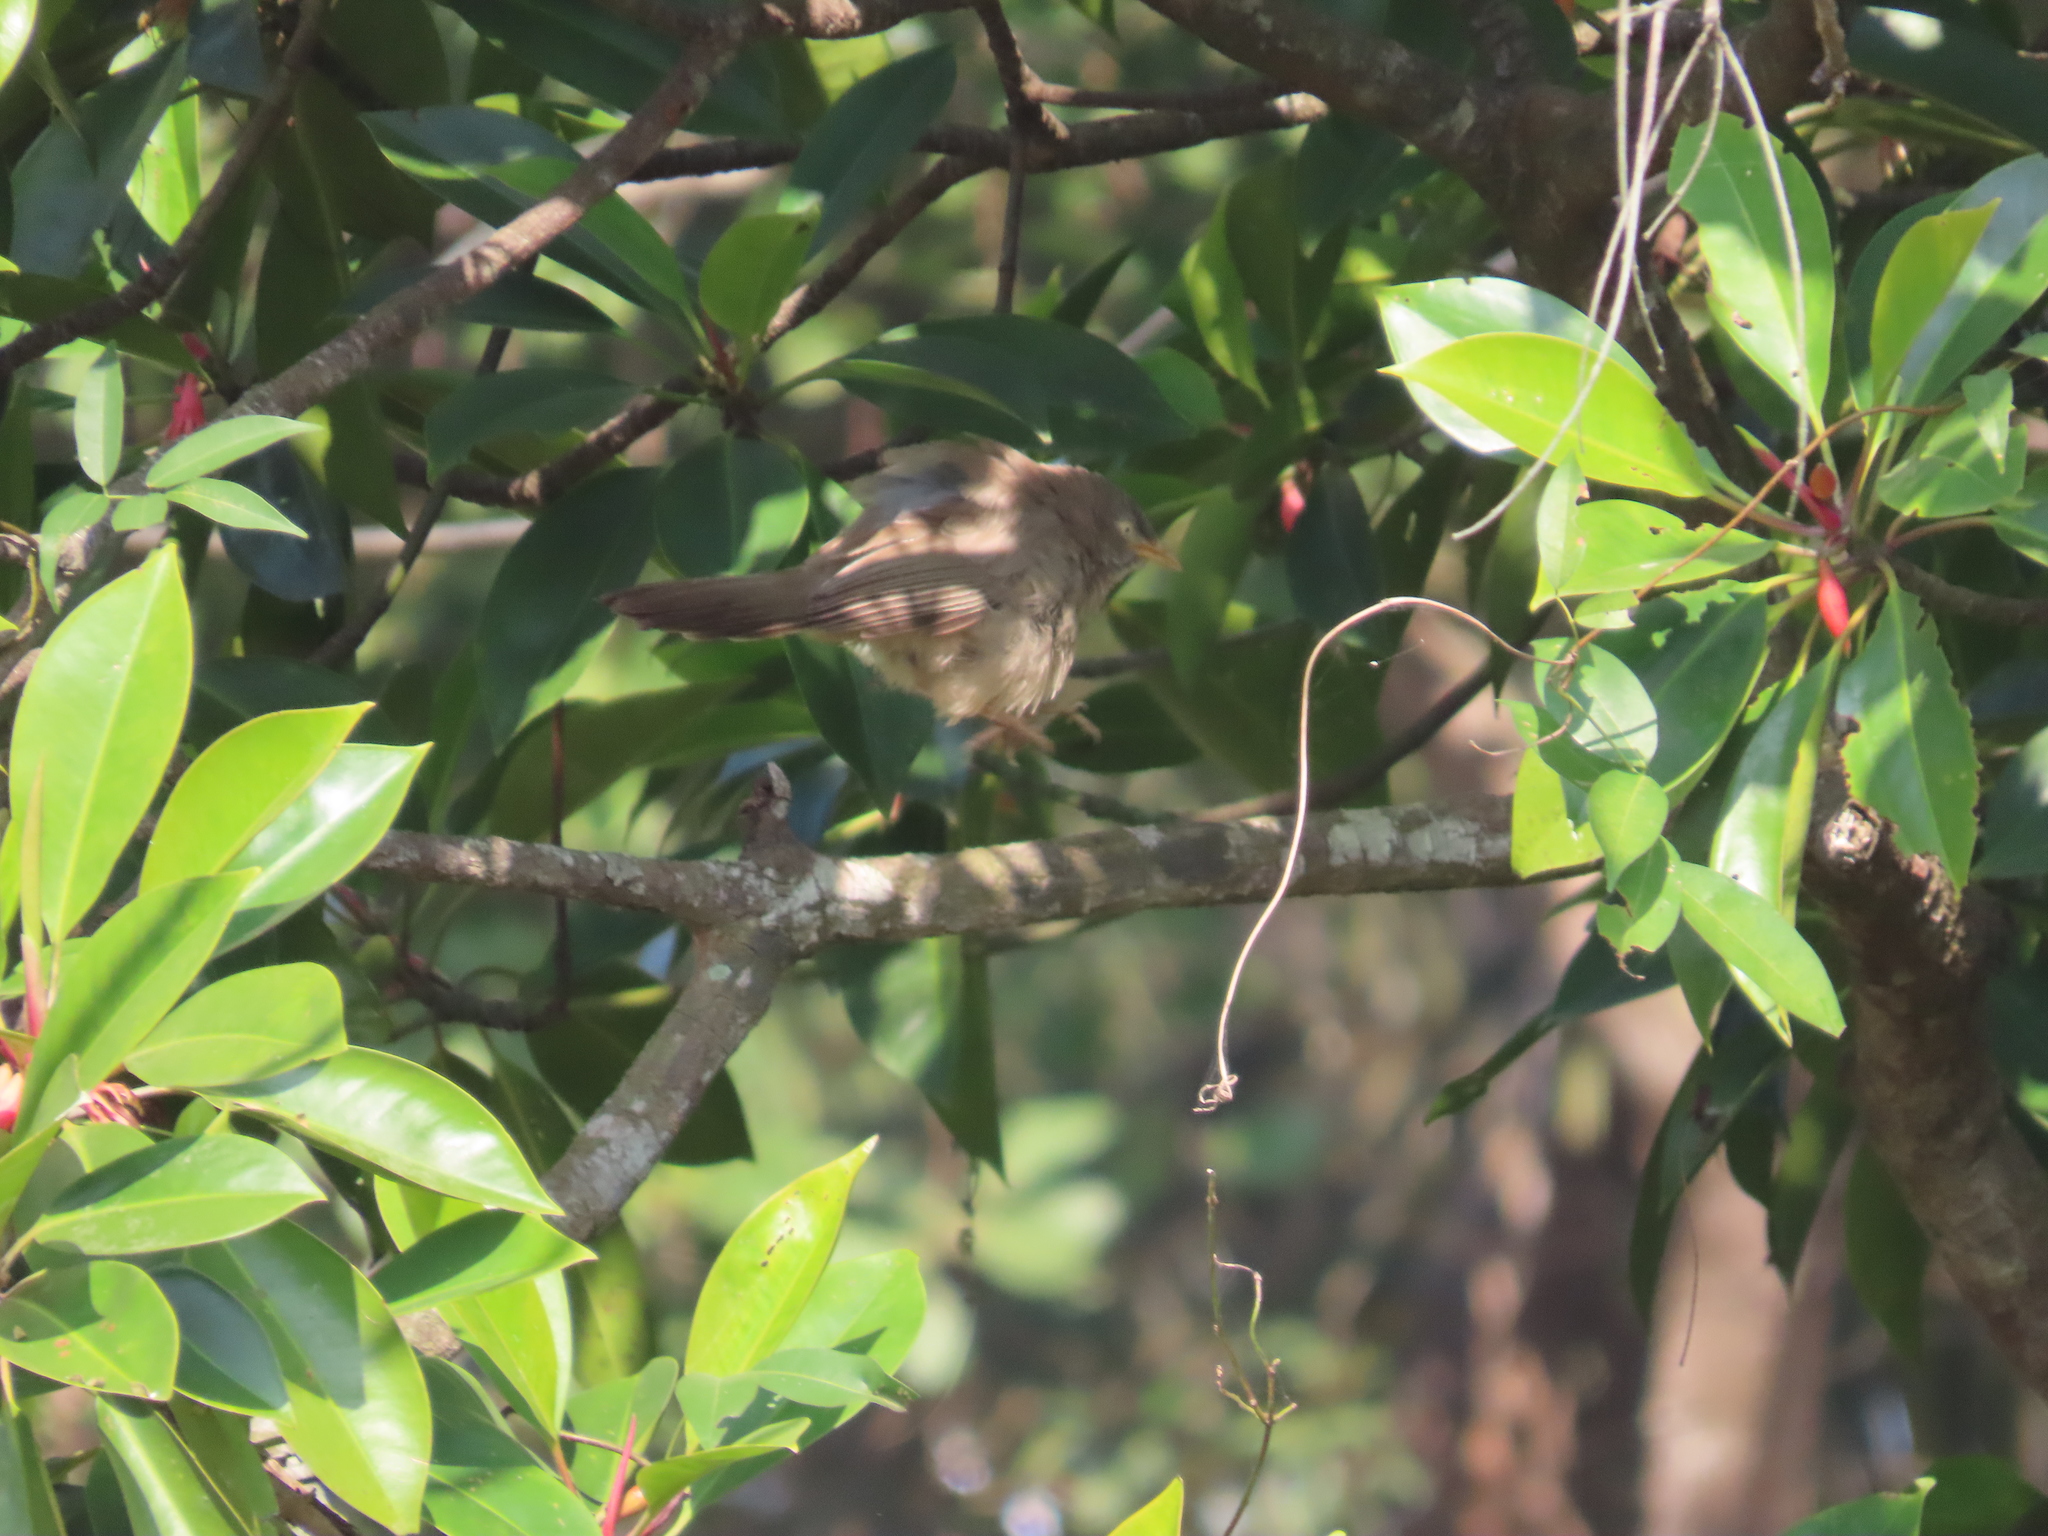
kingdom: Animalia
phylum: Chordata
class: Aves
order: Passeriformes
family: Leiothrichidae
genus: Turdoides
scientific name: Turdoides striata
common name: Jungle babbler
